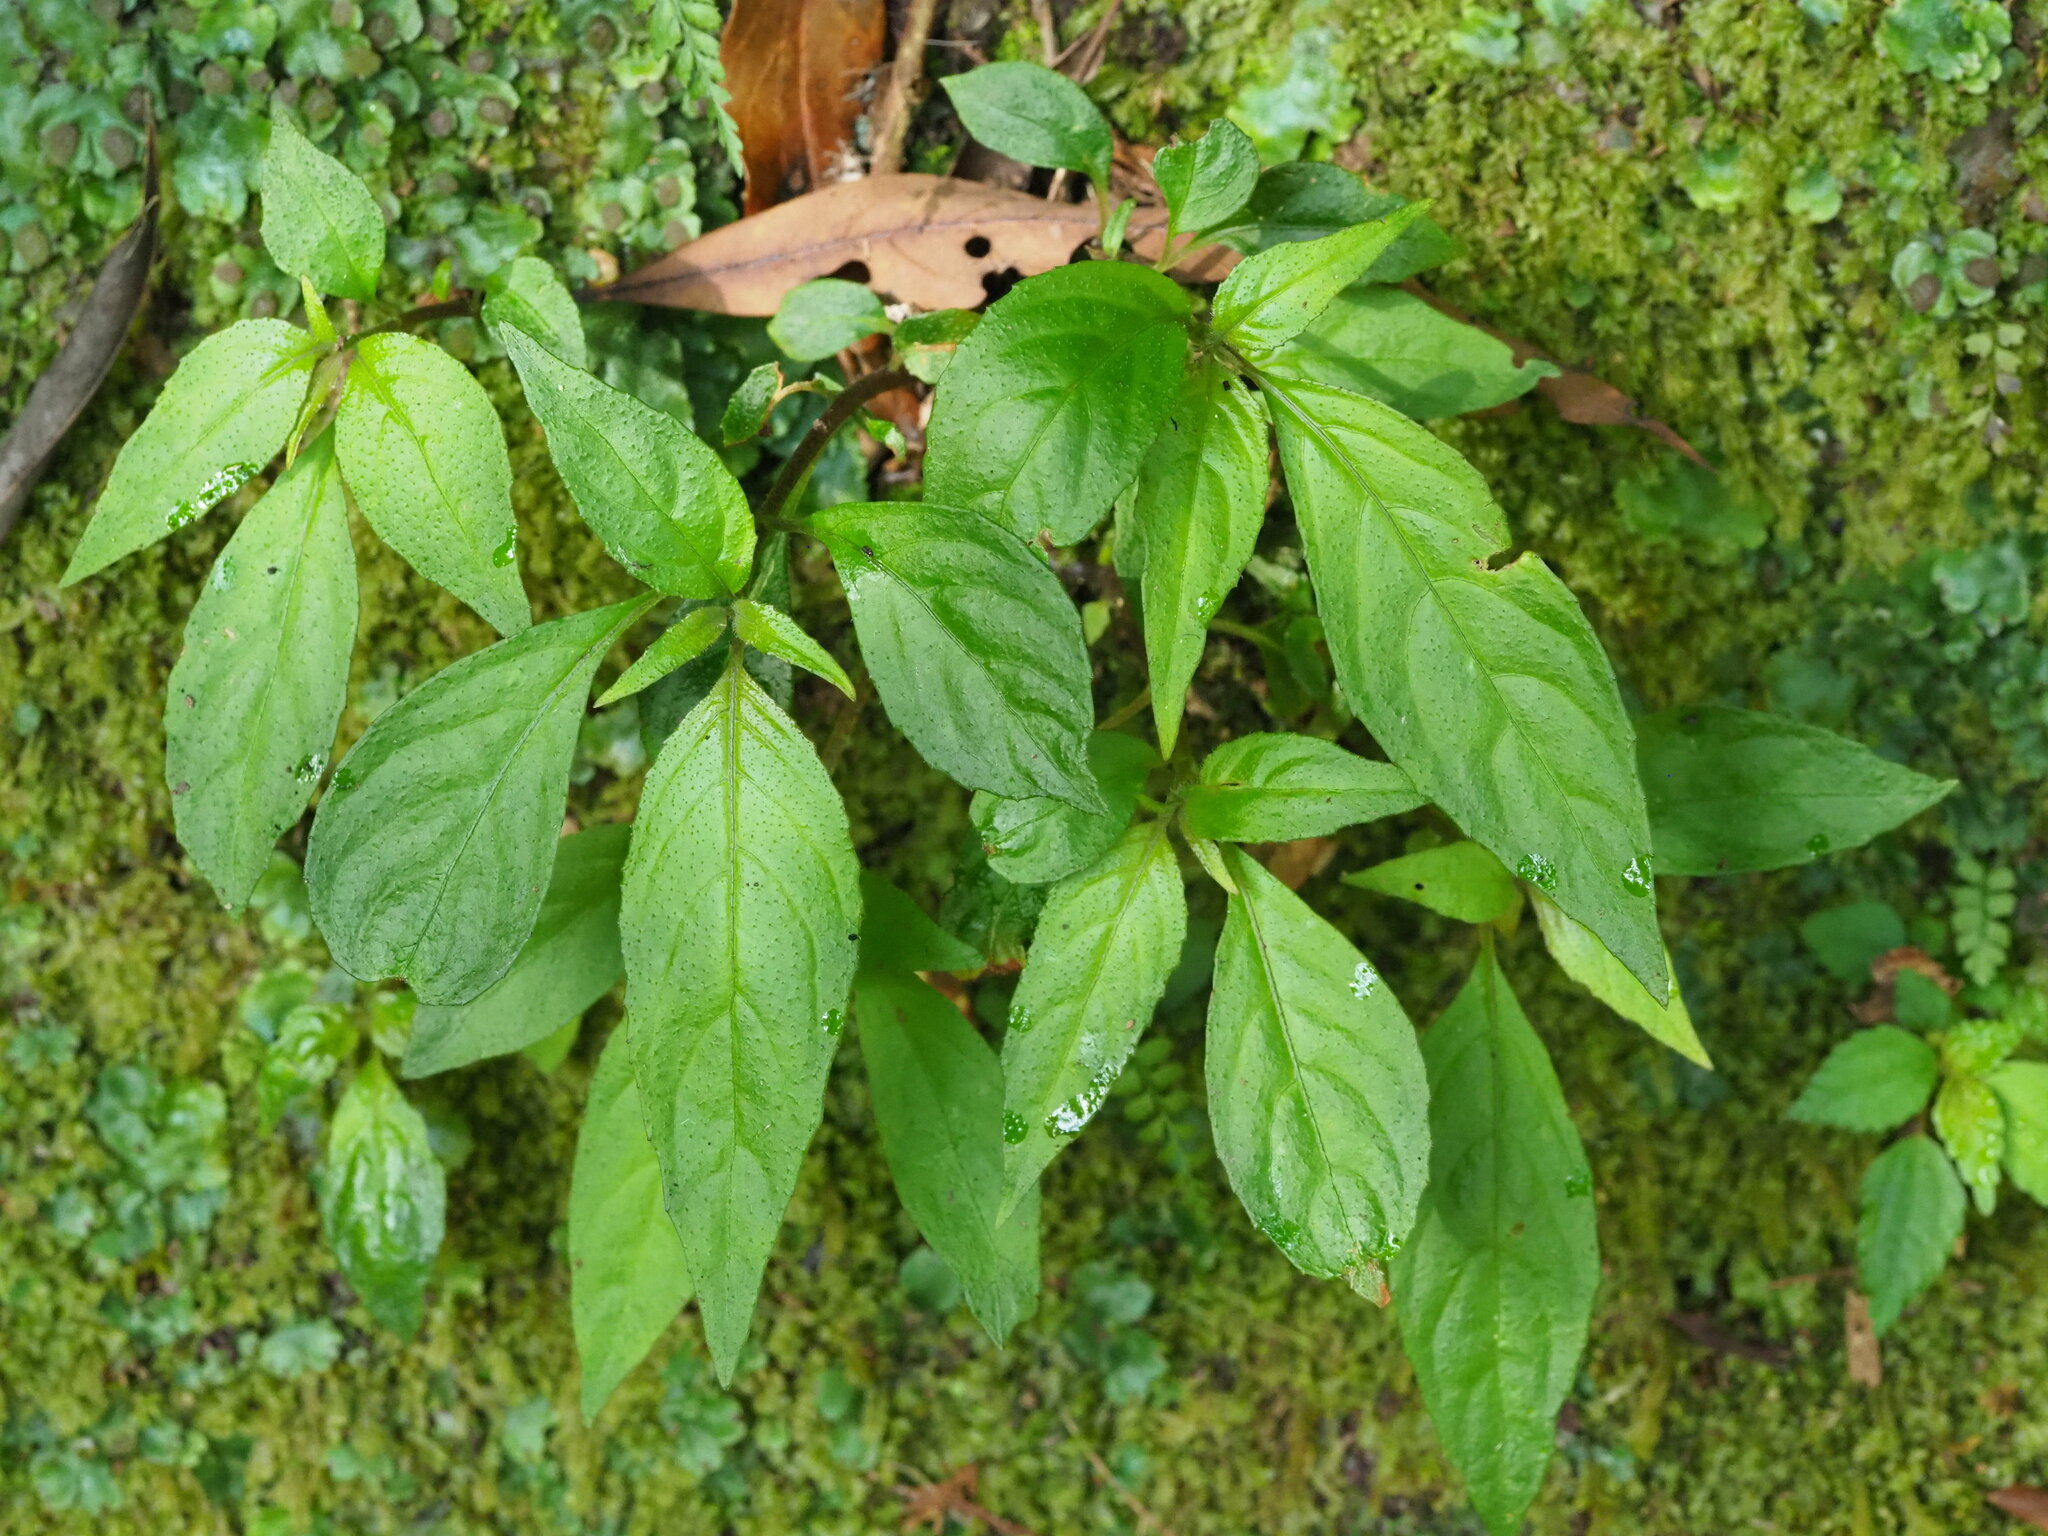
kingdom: Plantae
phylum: Tracheophyta
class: Magnoliopsida
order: Lamiales
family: Gesneriaceae
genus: Hemiboea
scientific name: Hemiboea bicornuta
